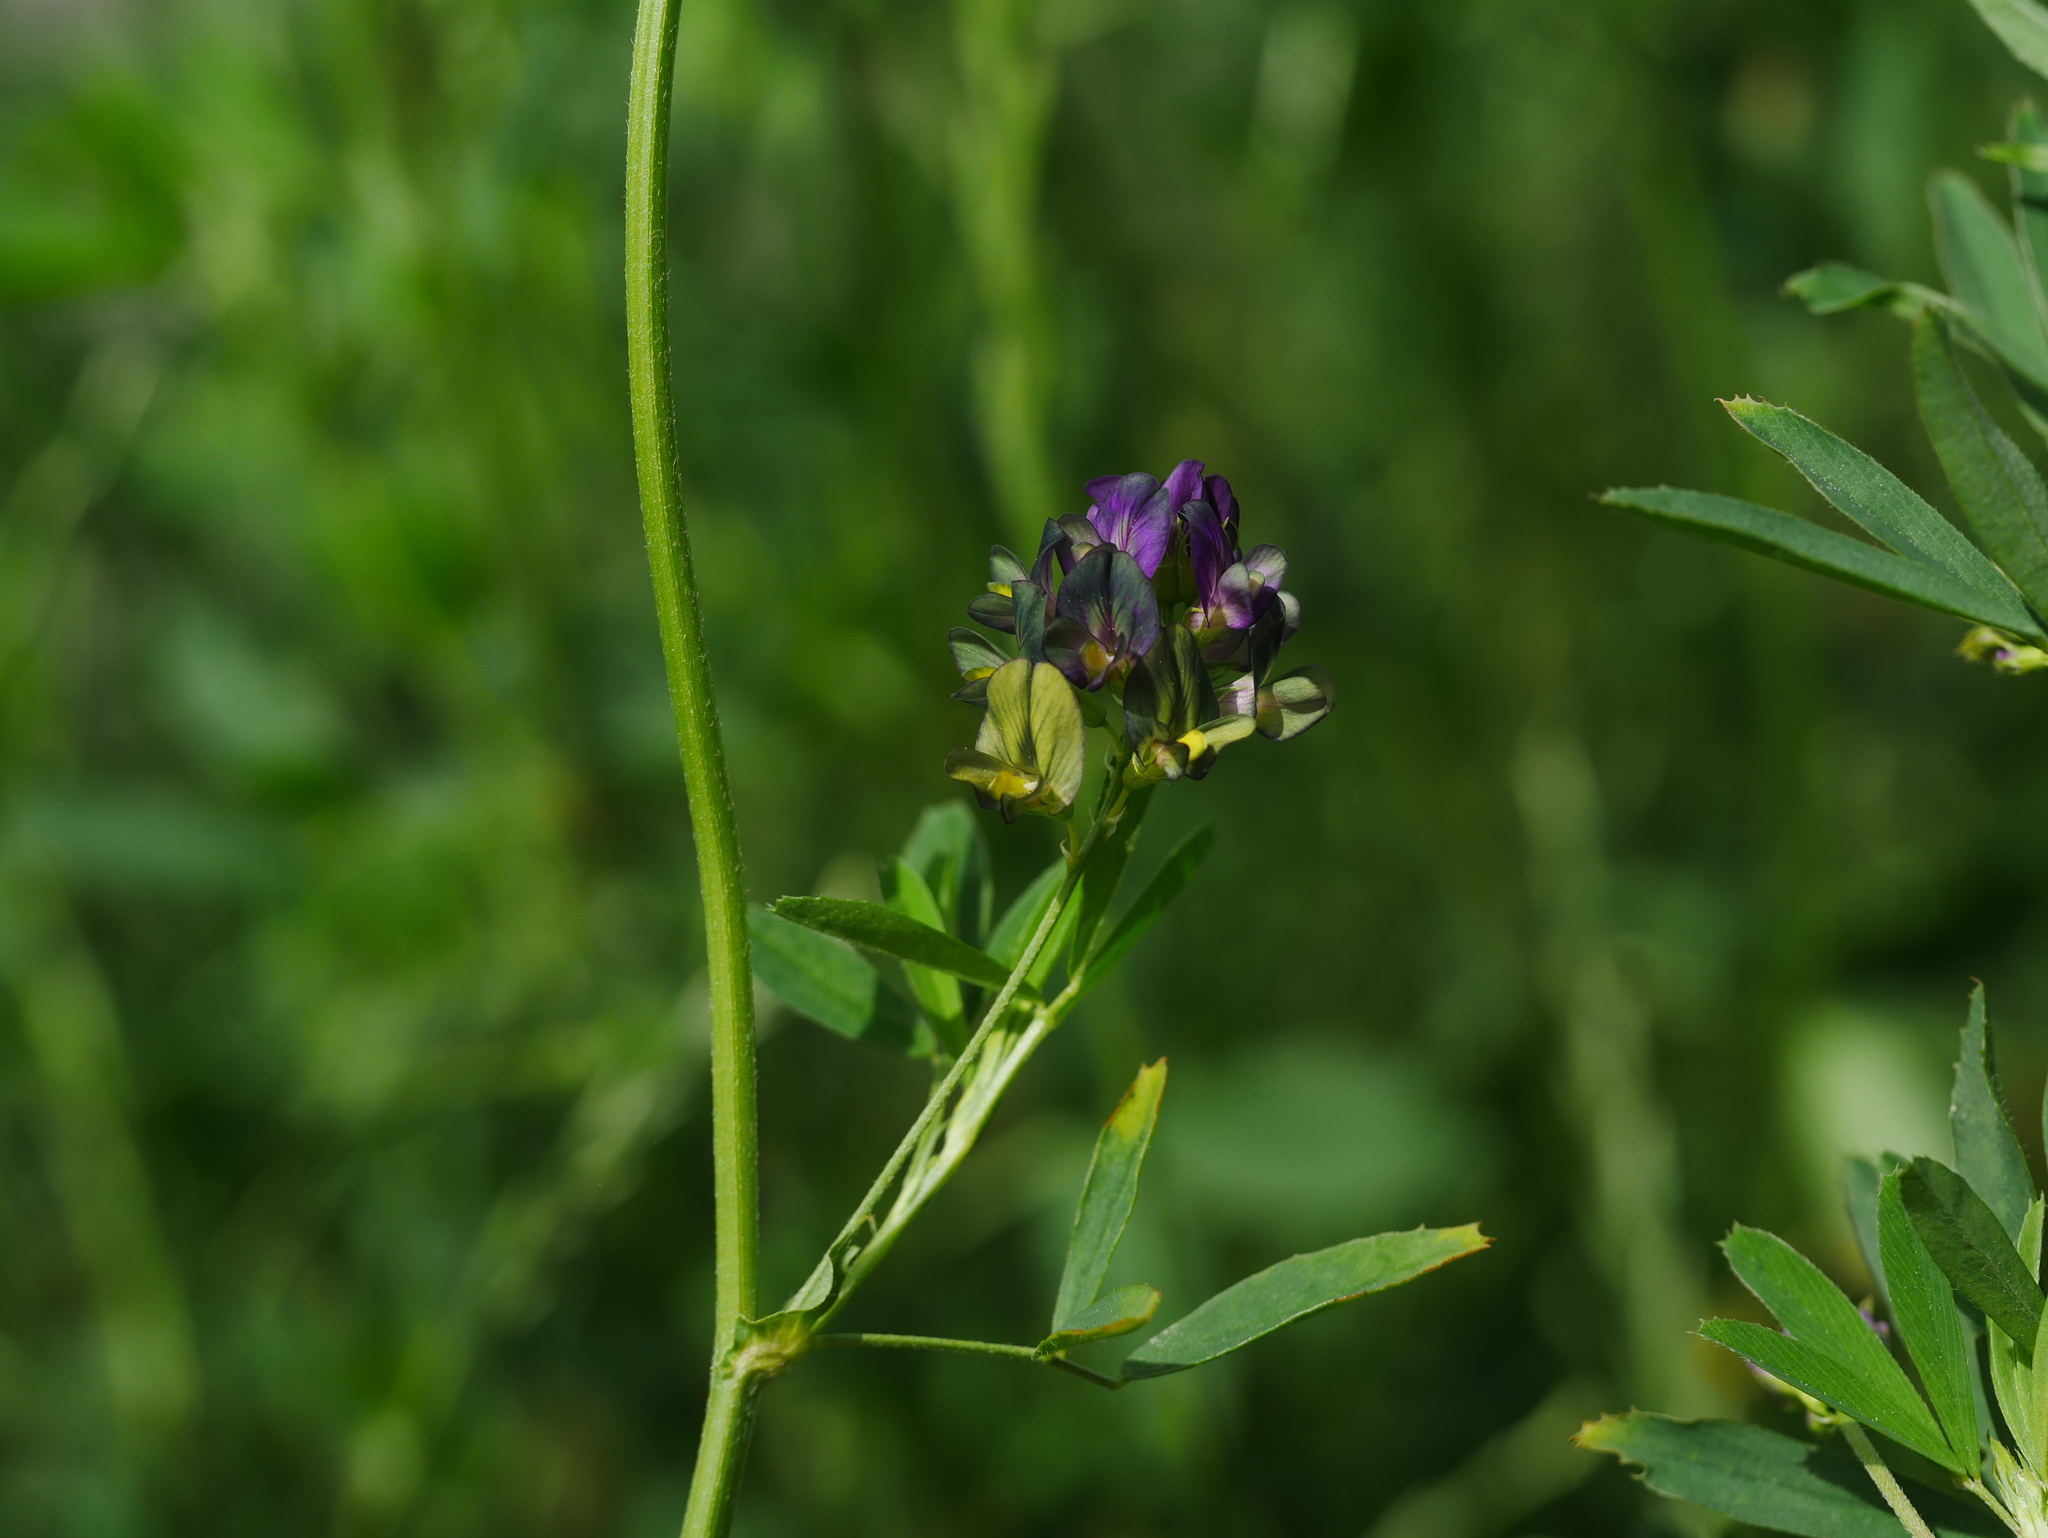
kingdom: Plantae
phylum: Tracheophyta
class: Magnoliopsida
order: Fabales
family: Fabaceae
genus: Medicago
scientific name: Medicago varia
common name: Sand lucerne
